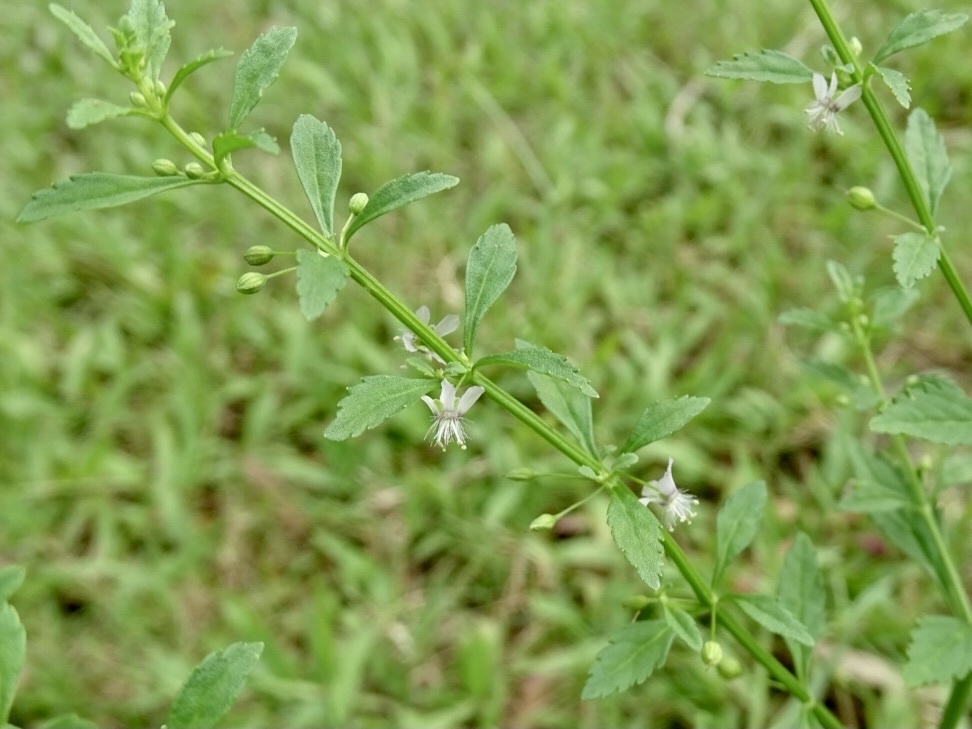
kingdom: Plantae
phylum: Tracheophyta
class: Magnoliopsida
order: Lamiales
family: Plantaginaceae
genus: Scoparia
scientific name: Scoparia dulcis
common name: Scoparia-weed
